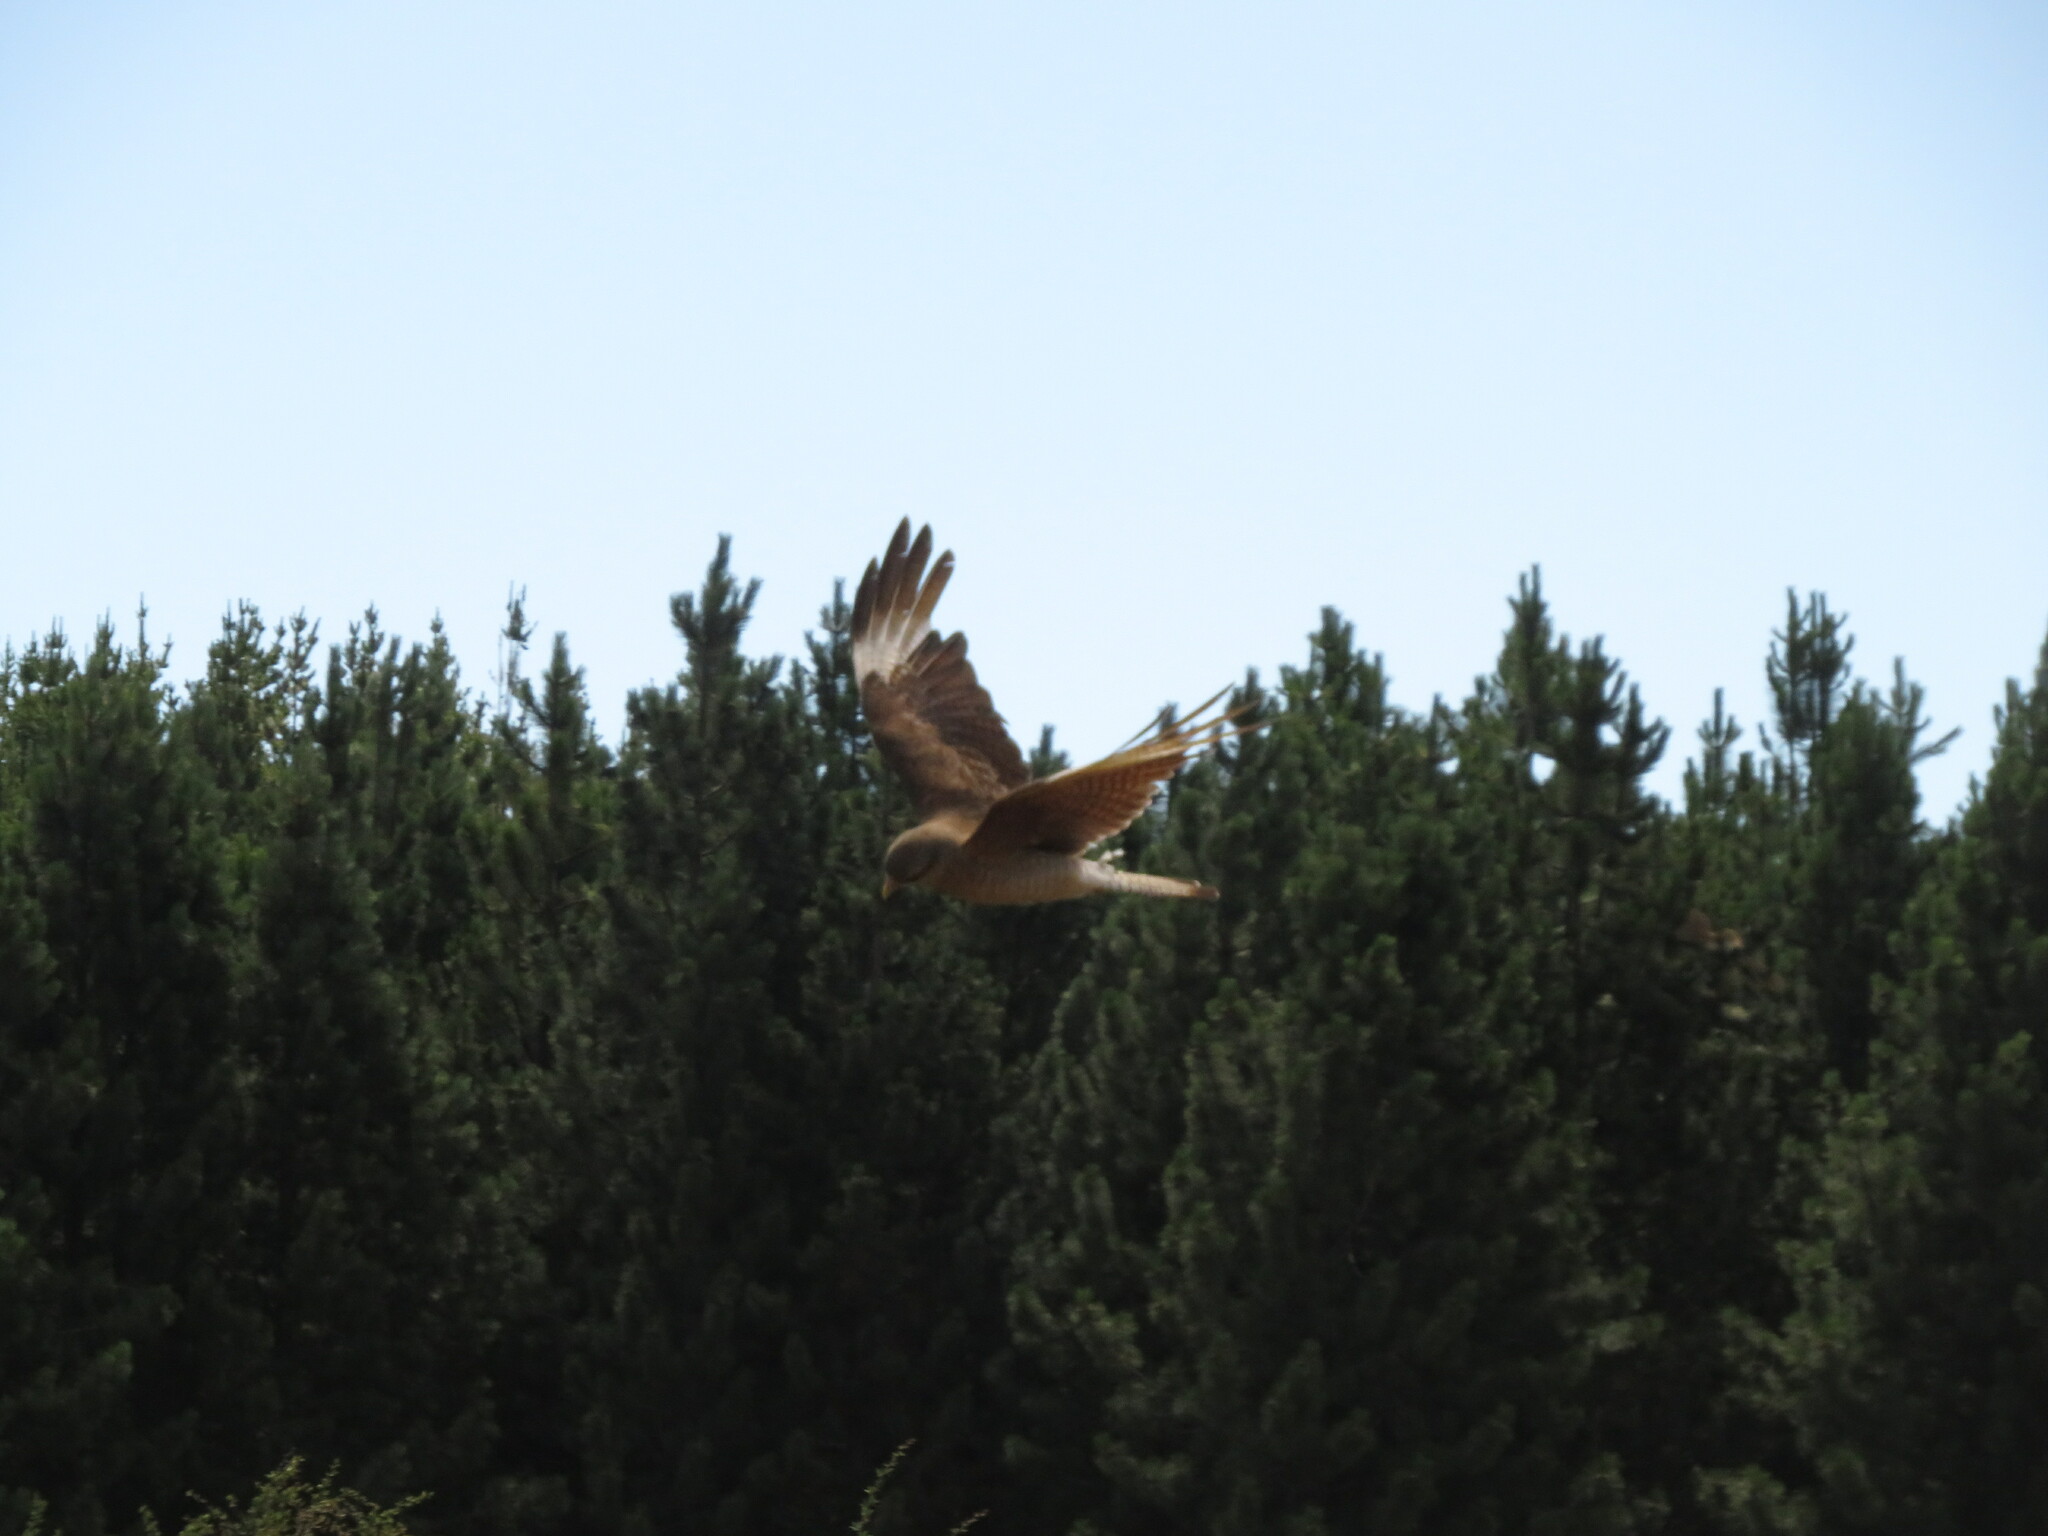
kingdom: Animalia
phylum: Chordata
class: Aves
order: Falconiformes
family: Falconidae
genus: Daptrius
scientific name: Daptrius
